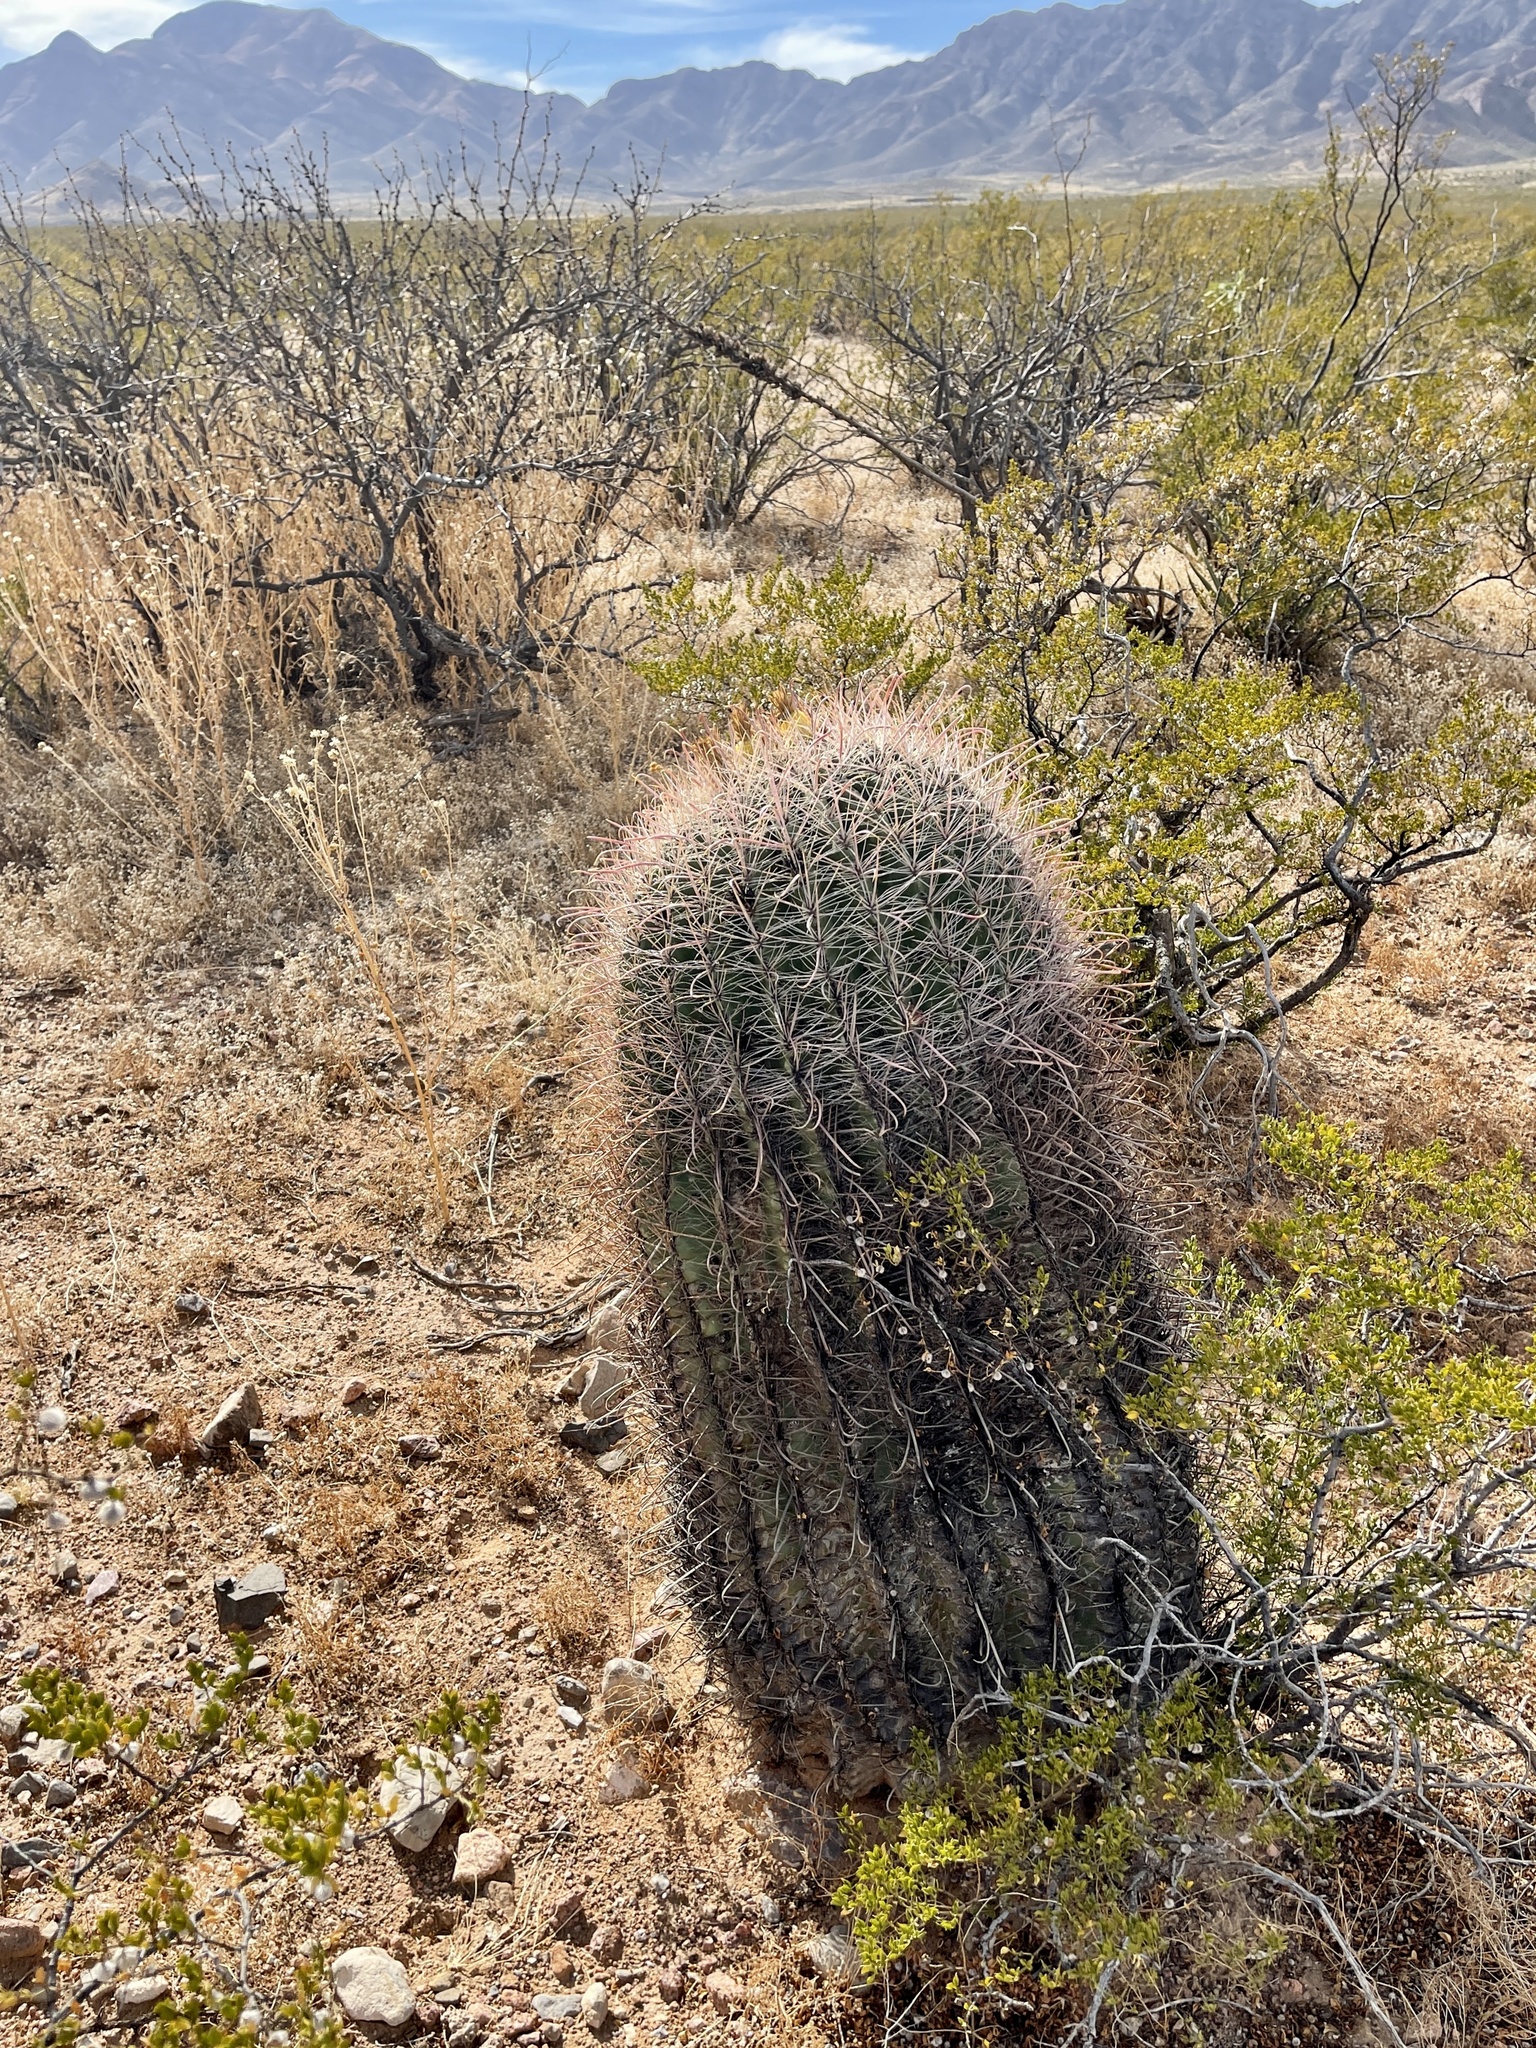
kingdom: Plantae
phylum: Tracheophyta
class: Magnoliopsida
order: Caryophyllales
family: Cactaceae
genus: Ferocactus
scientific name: Ferocactus wislizeni
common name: Candy barrel cactus
